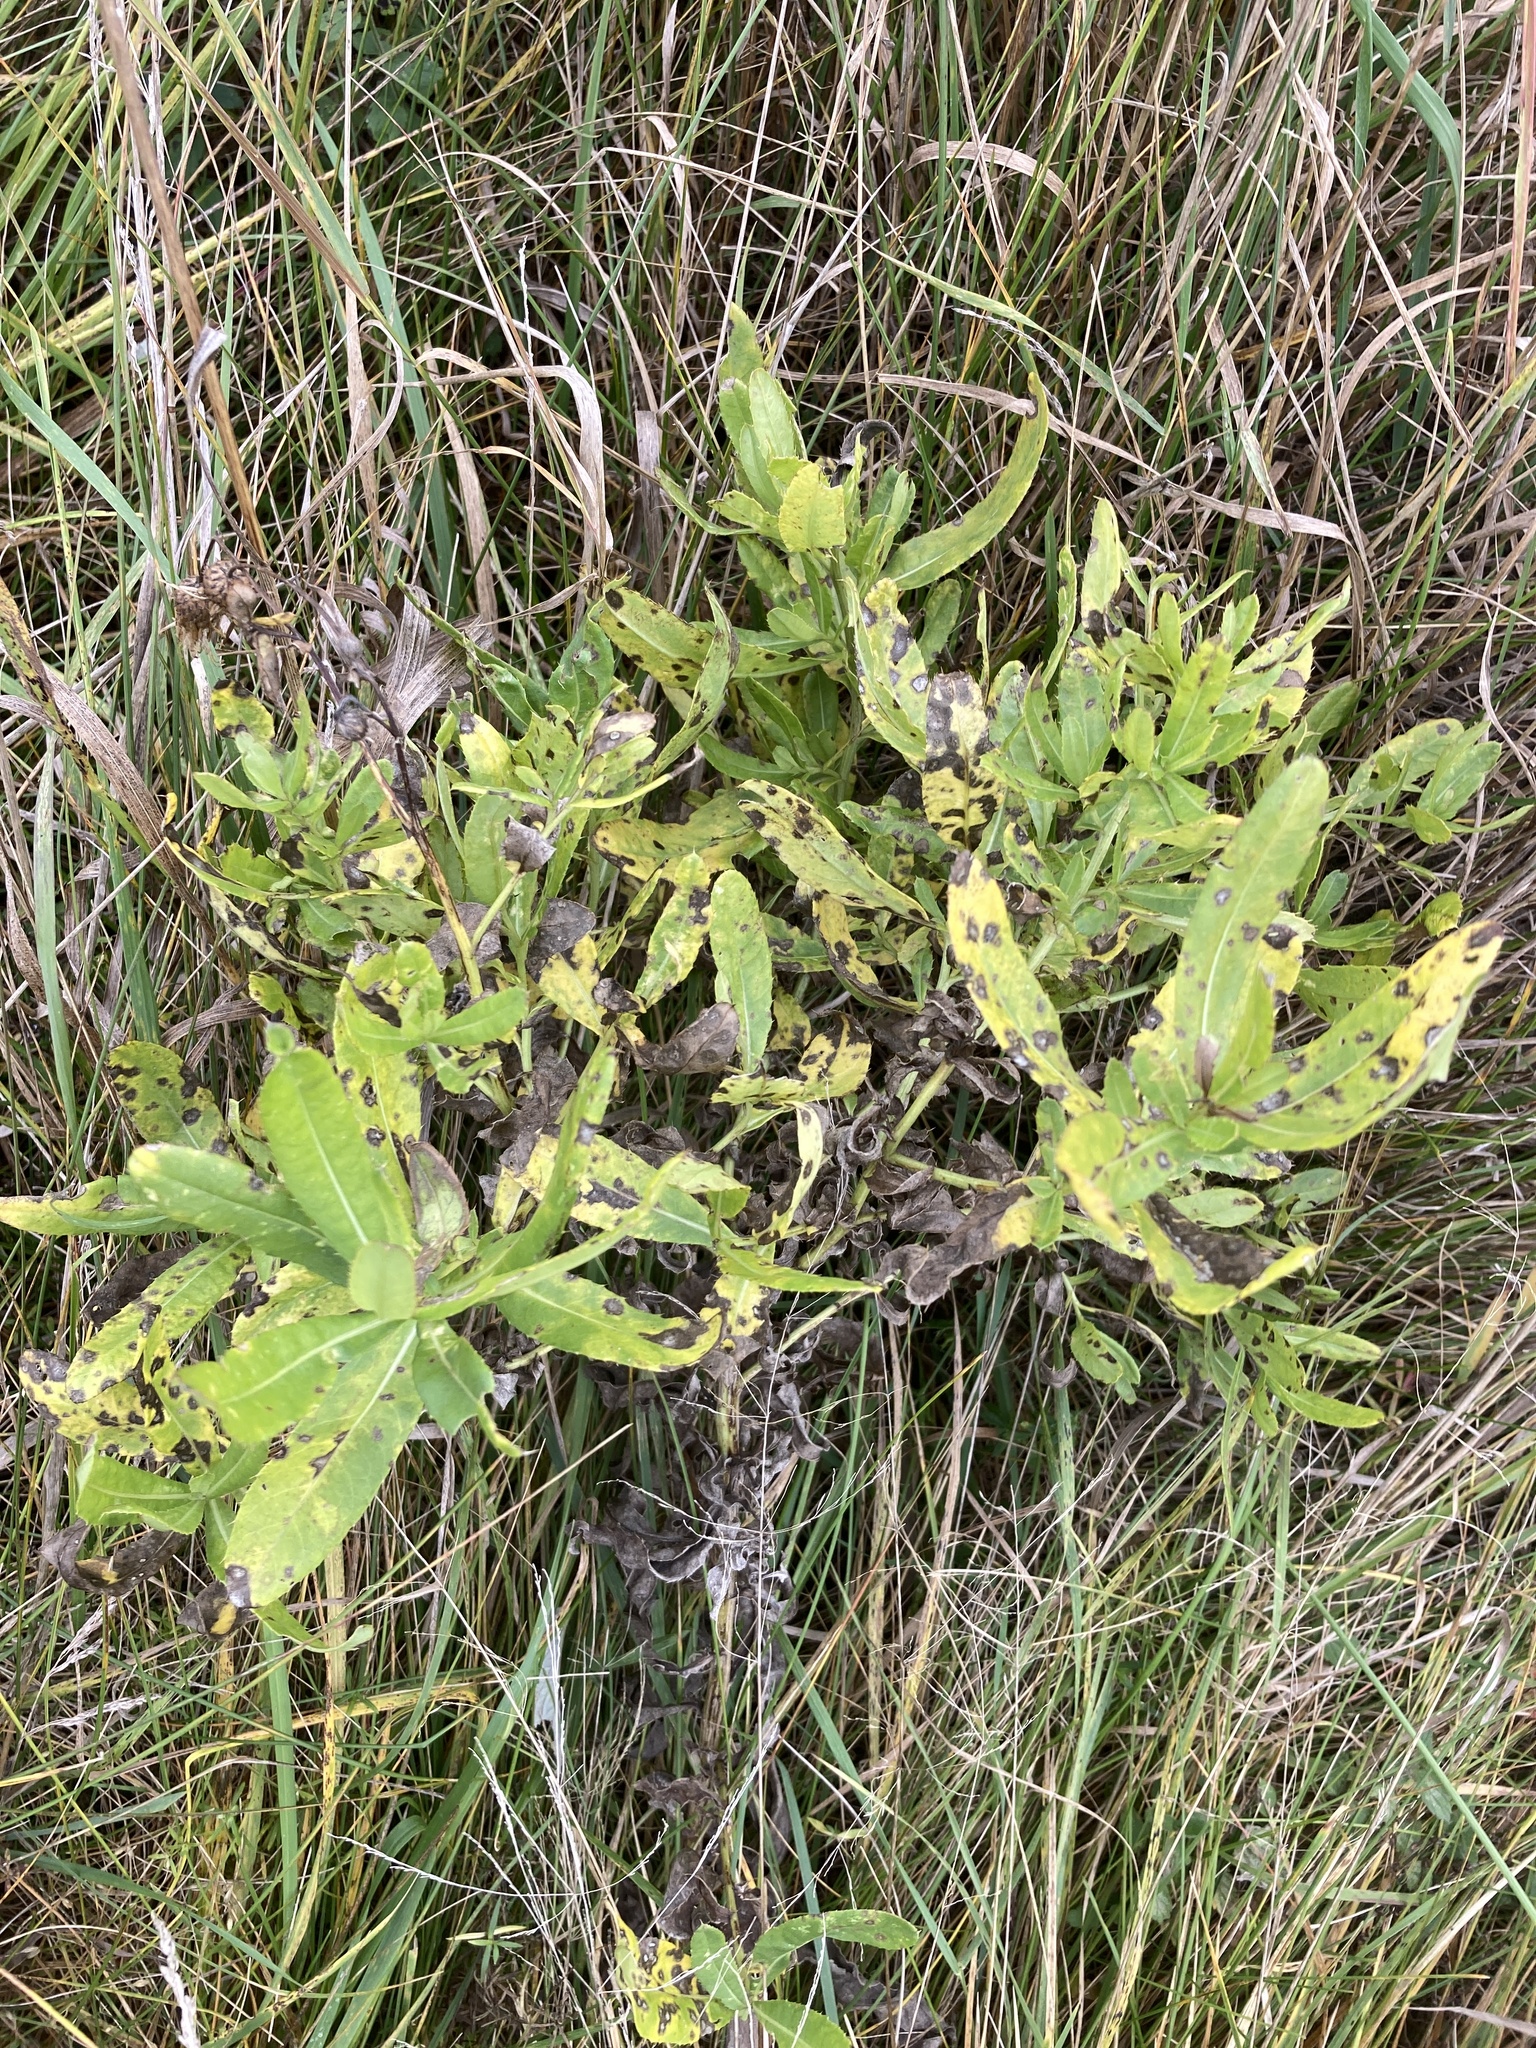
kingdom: Plantae
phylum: Tracheophyta
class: Magnoliopsida
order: Asterales
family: Asteraceae
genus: Cirsium
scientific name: Cirsium arvense
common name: Creeping thistle
